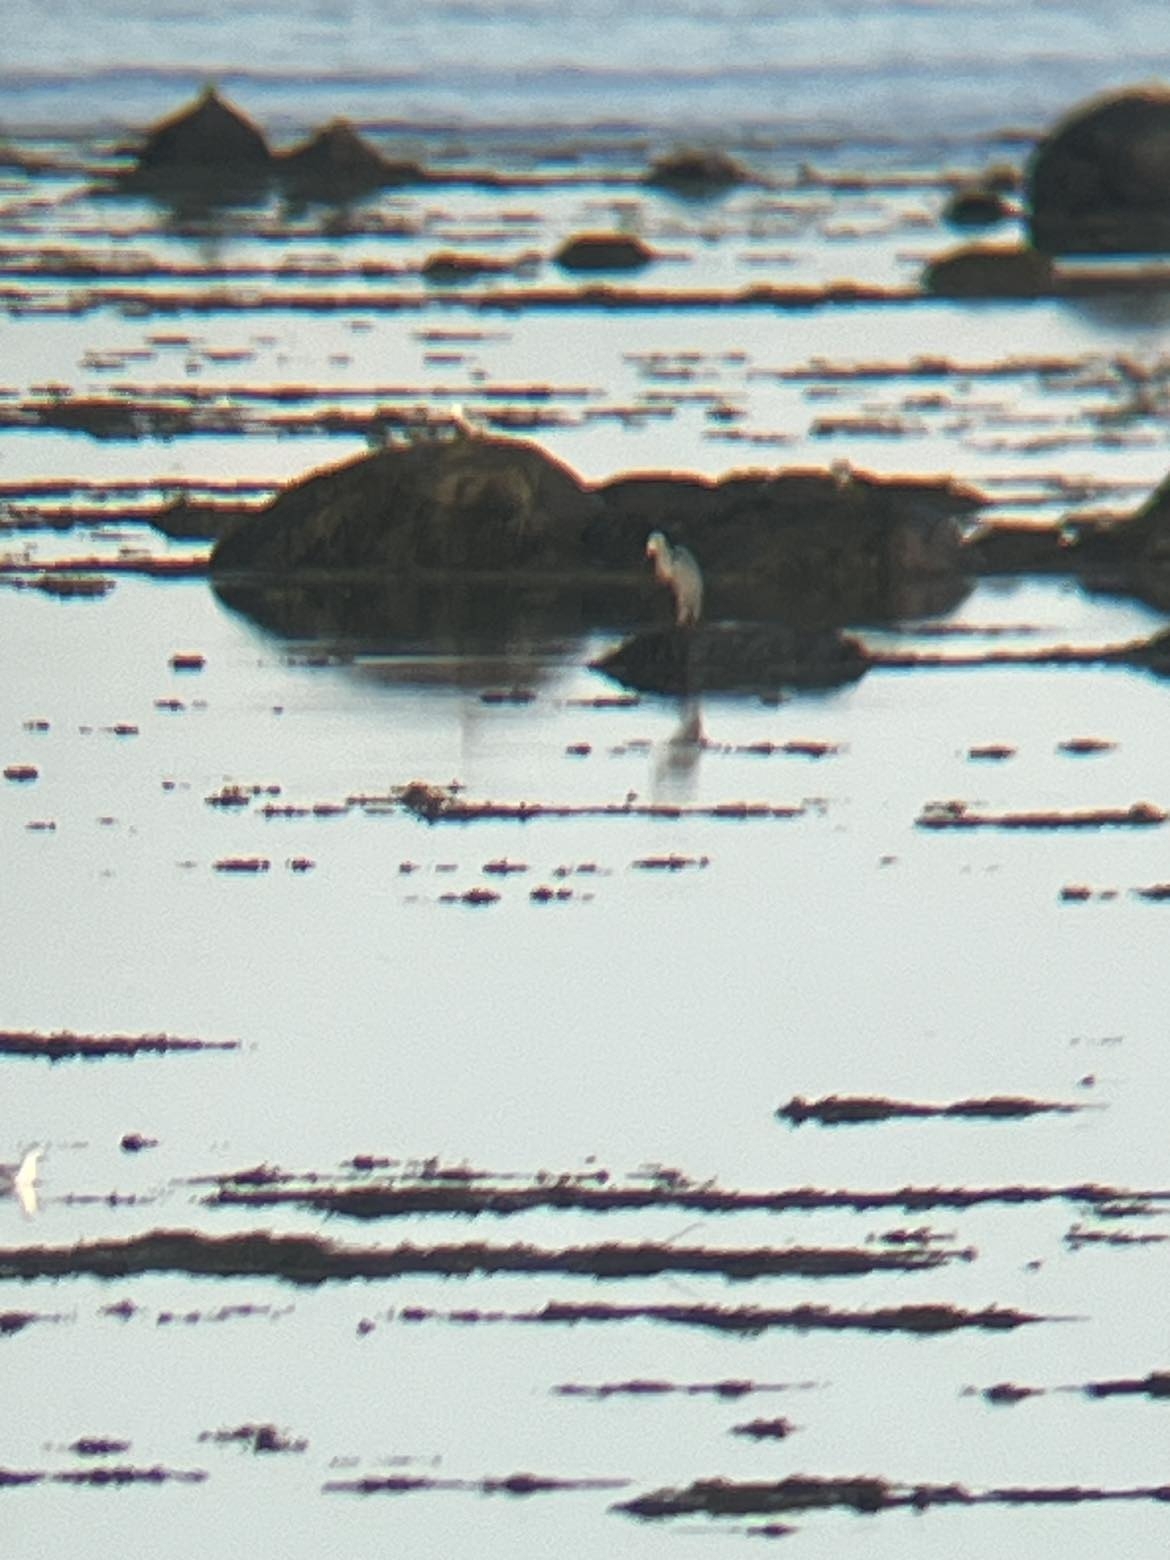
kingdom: Animalia
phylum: Chordata
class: Aves
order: Pelecaniformes
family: Ardeidae
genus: Ardea
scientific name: Ardea herodias
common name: Great blue heron
